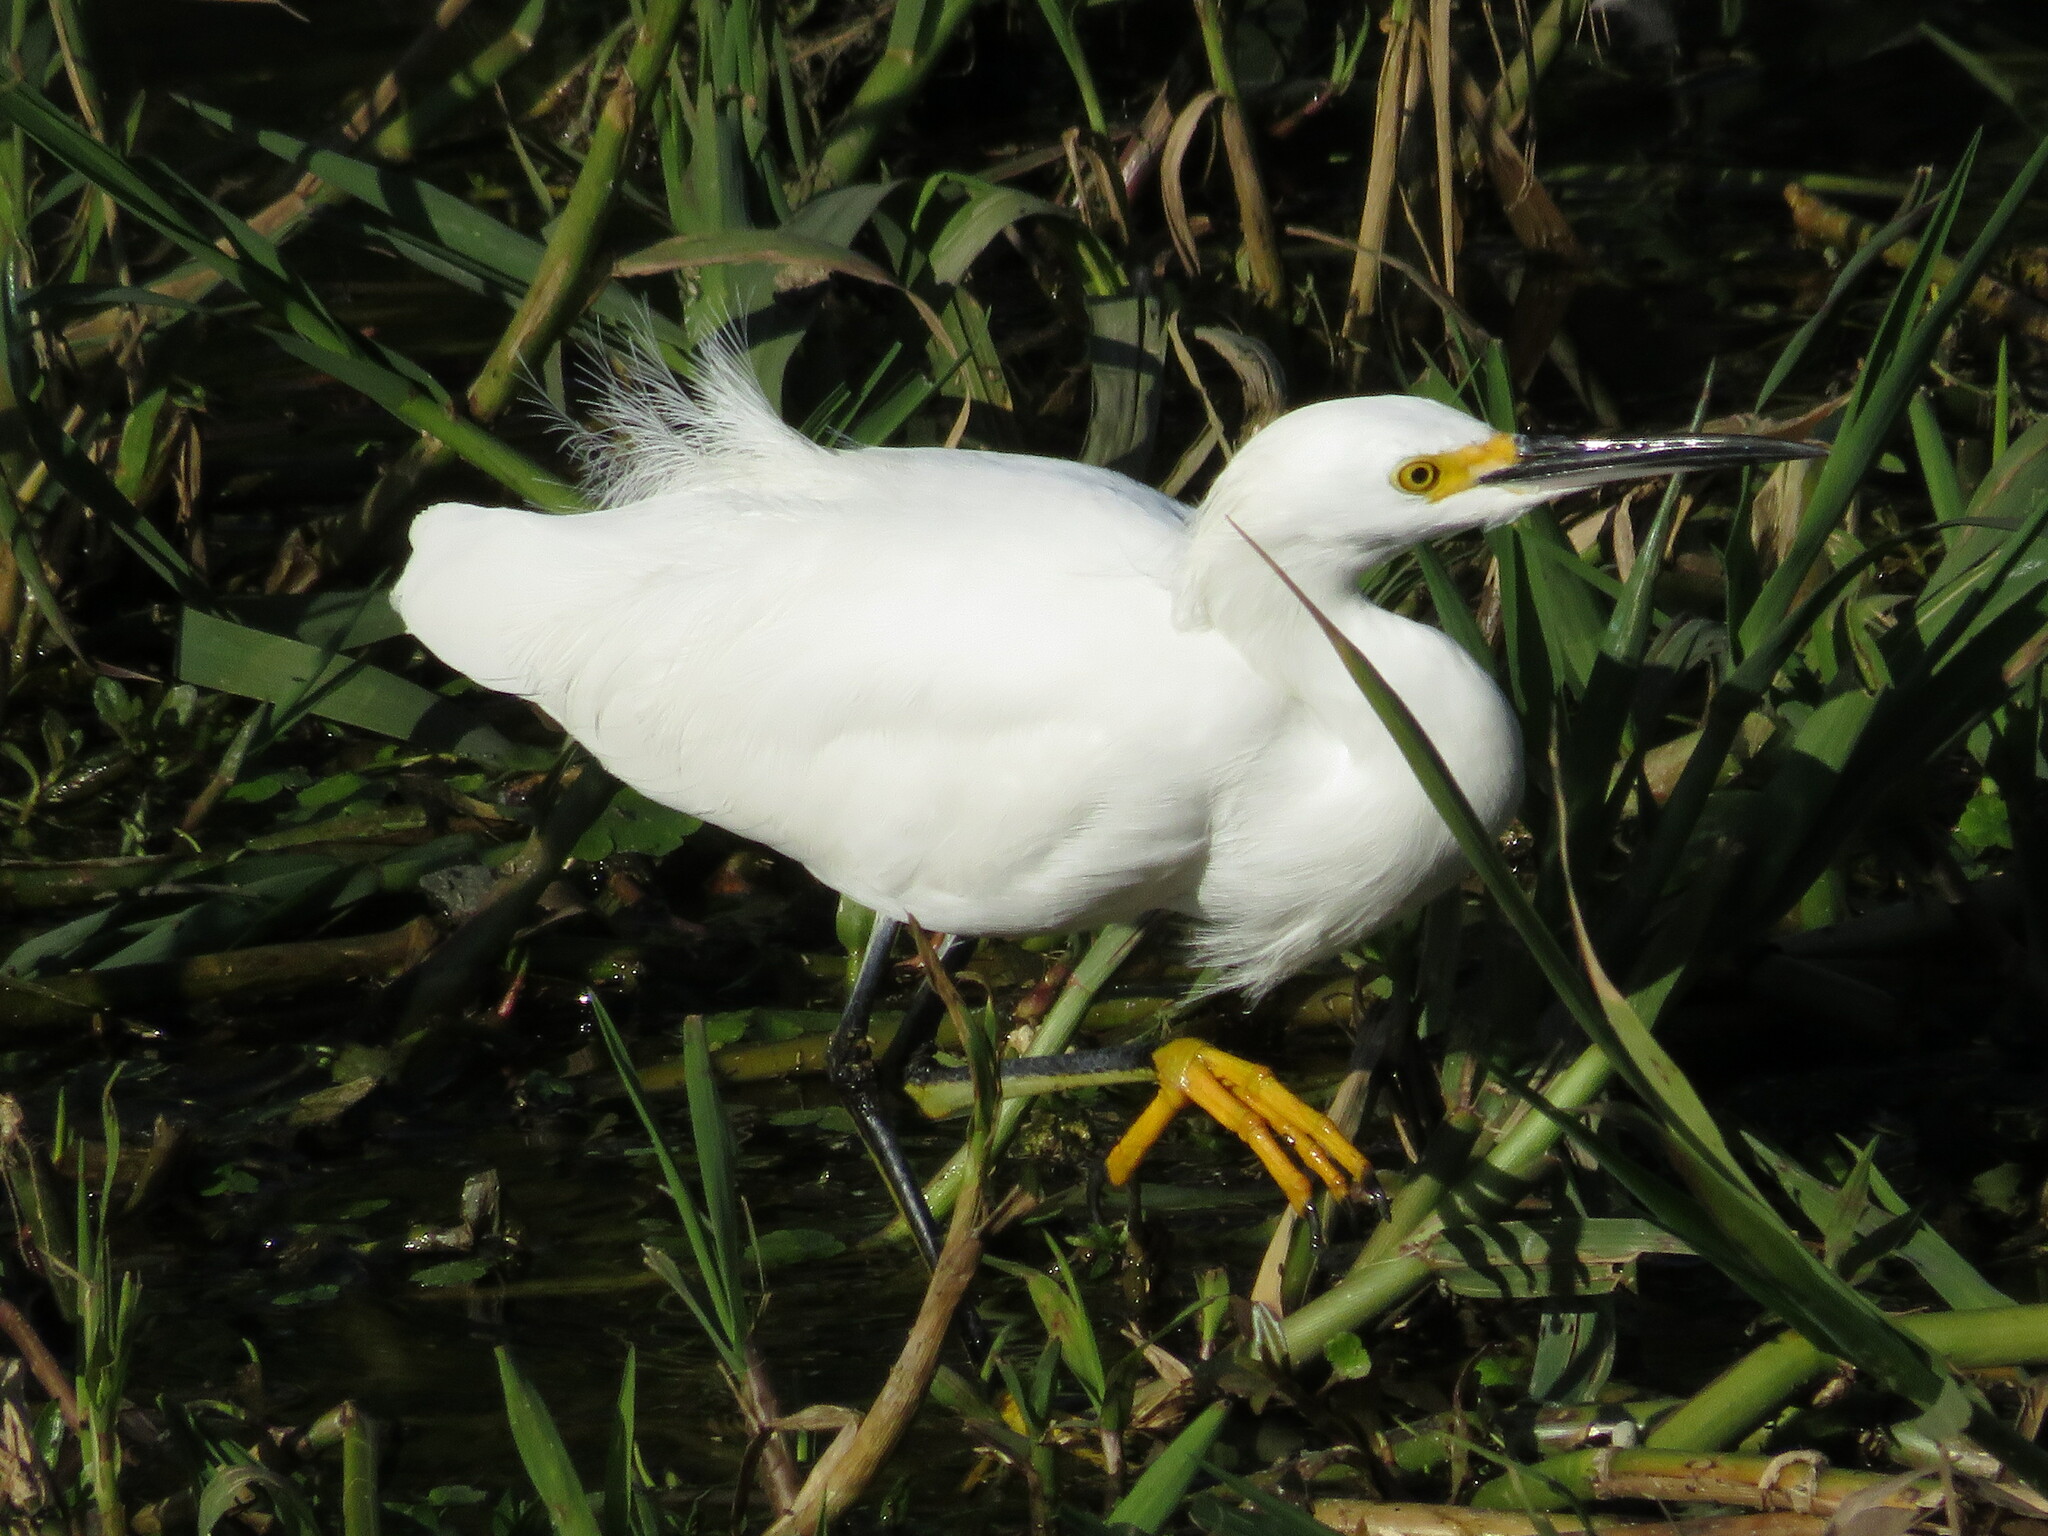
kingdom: Animalia
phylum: Chordata
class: Aves
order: Pelecaniformes
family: Ardeidae
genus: Egretta
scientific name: Egretta thula
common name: Snowy egret
